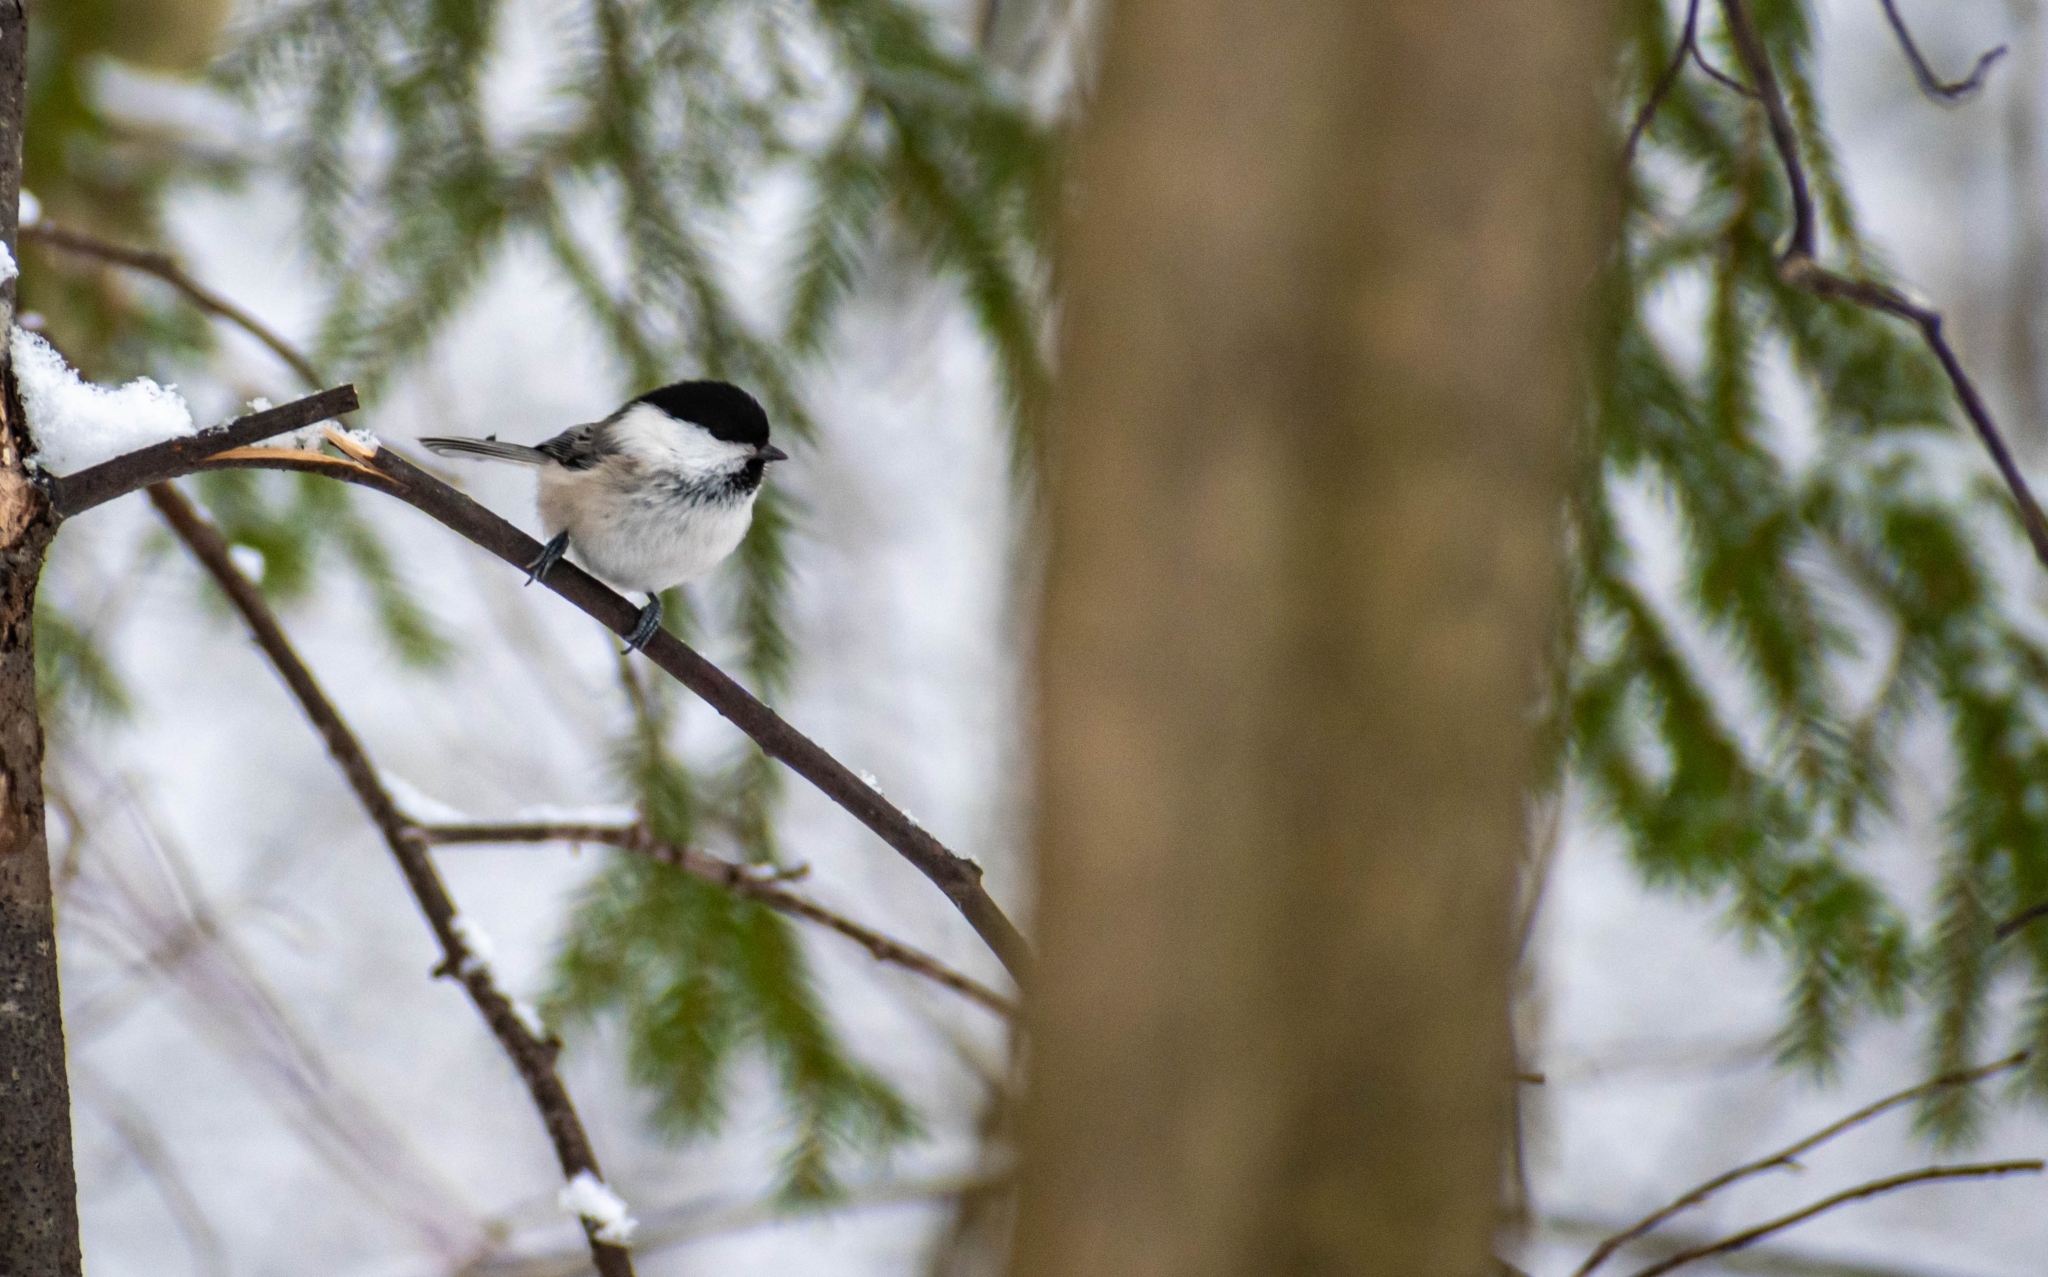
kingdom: Animalia
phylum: Chordata
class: Aves
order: Passeriformes
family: Paridae
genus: Poecile
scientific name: Poecile montanus
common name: Willow tit
